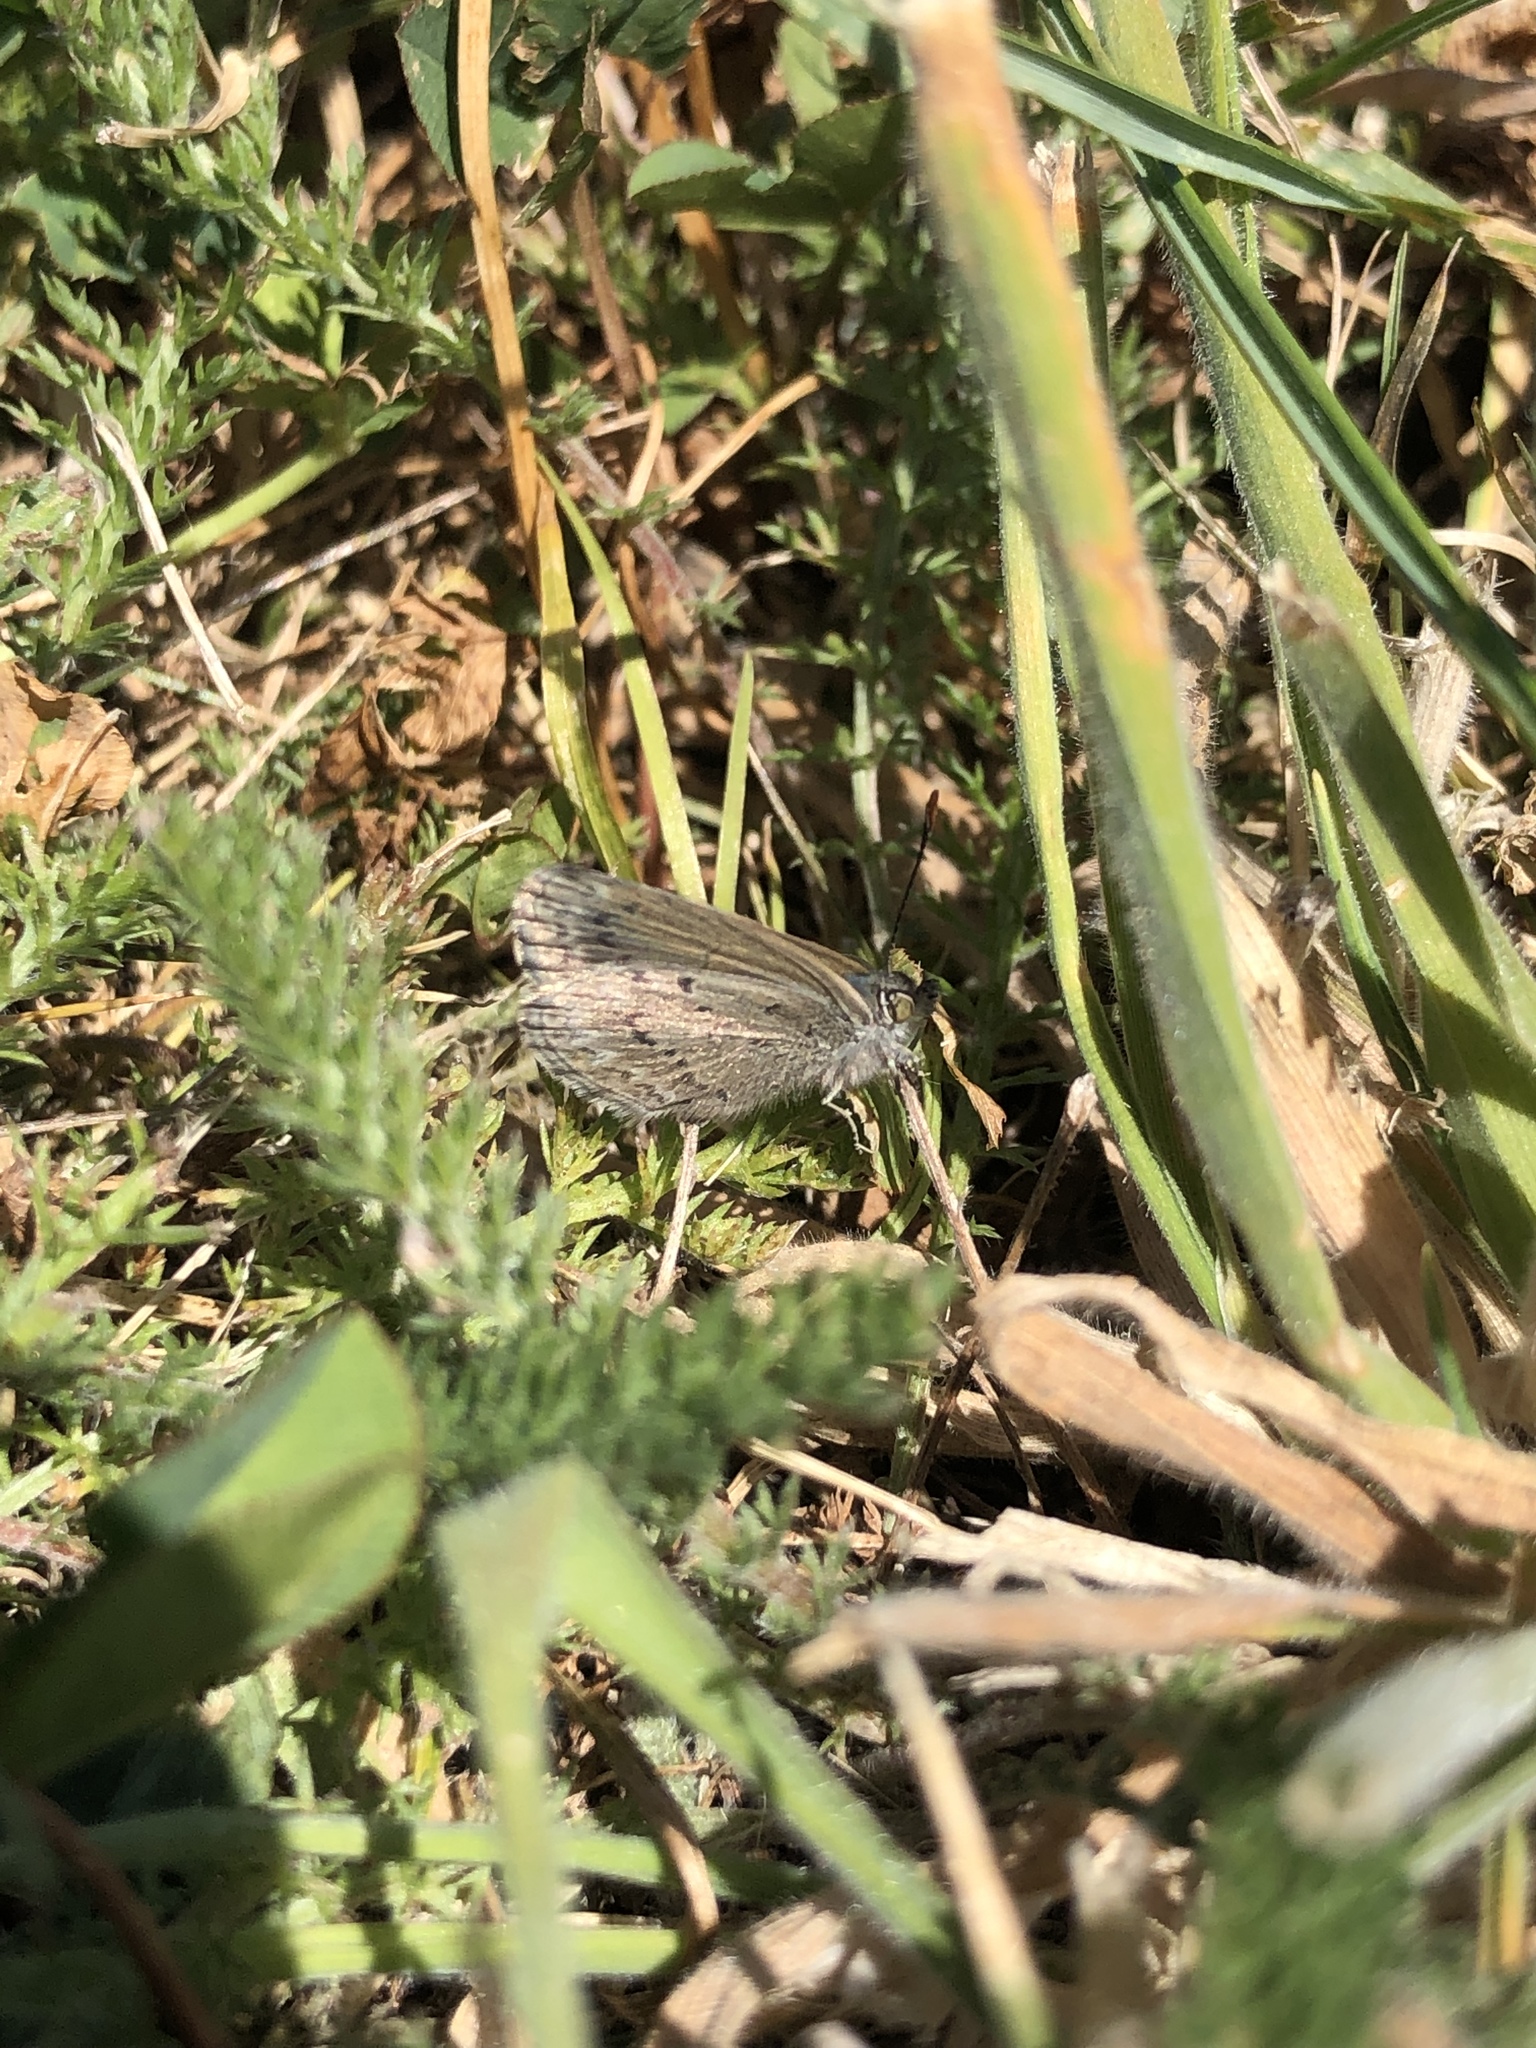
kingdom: Animalia
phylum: Arthropoda
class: Insecta
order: Lepidoptera
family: Lycaenidae
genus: Zizina
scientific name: Zizina oxleyi
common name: Southern blue
